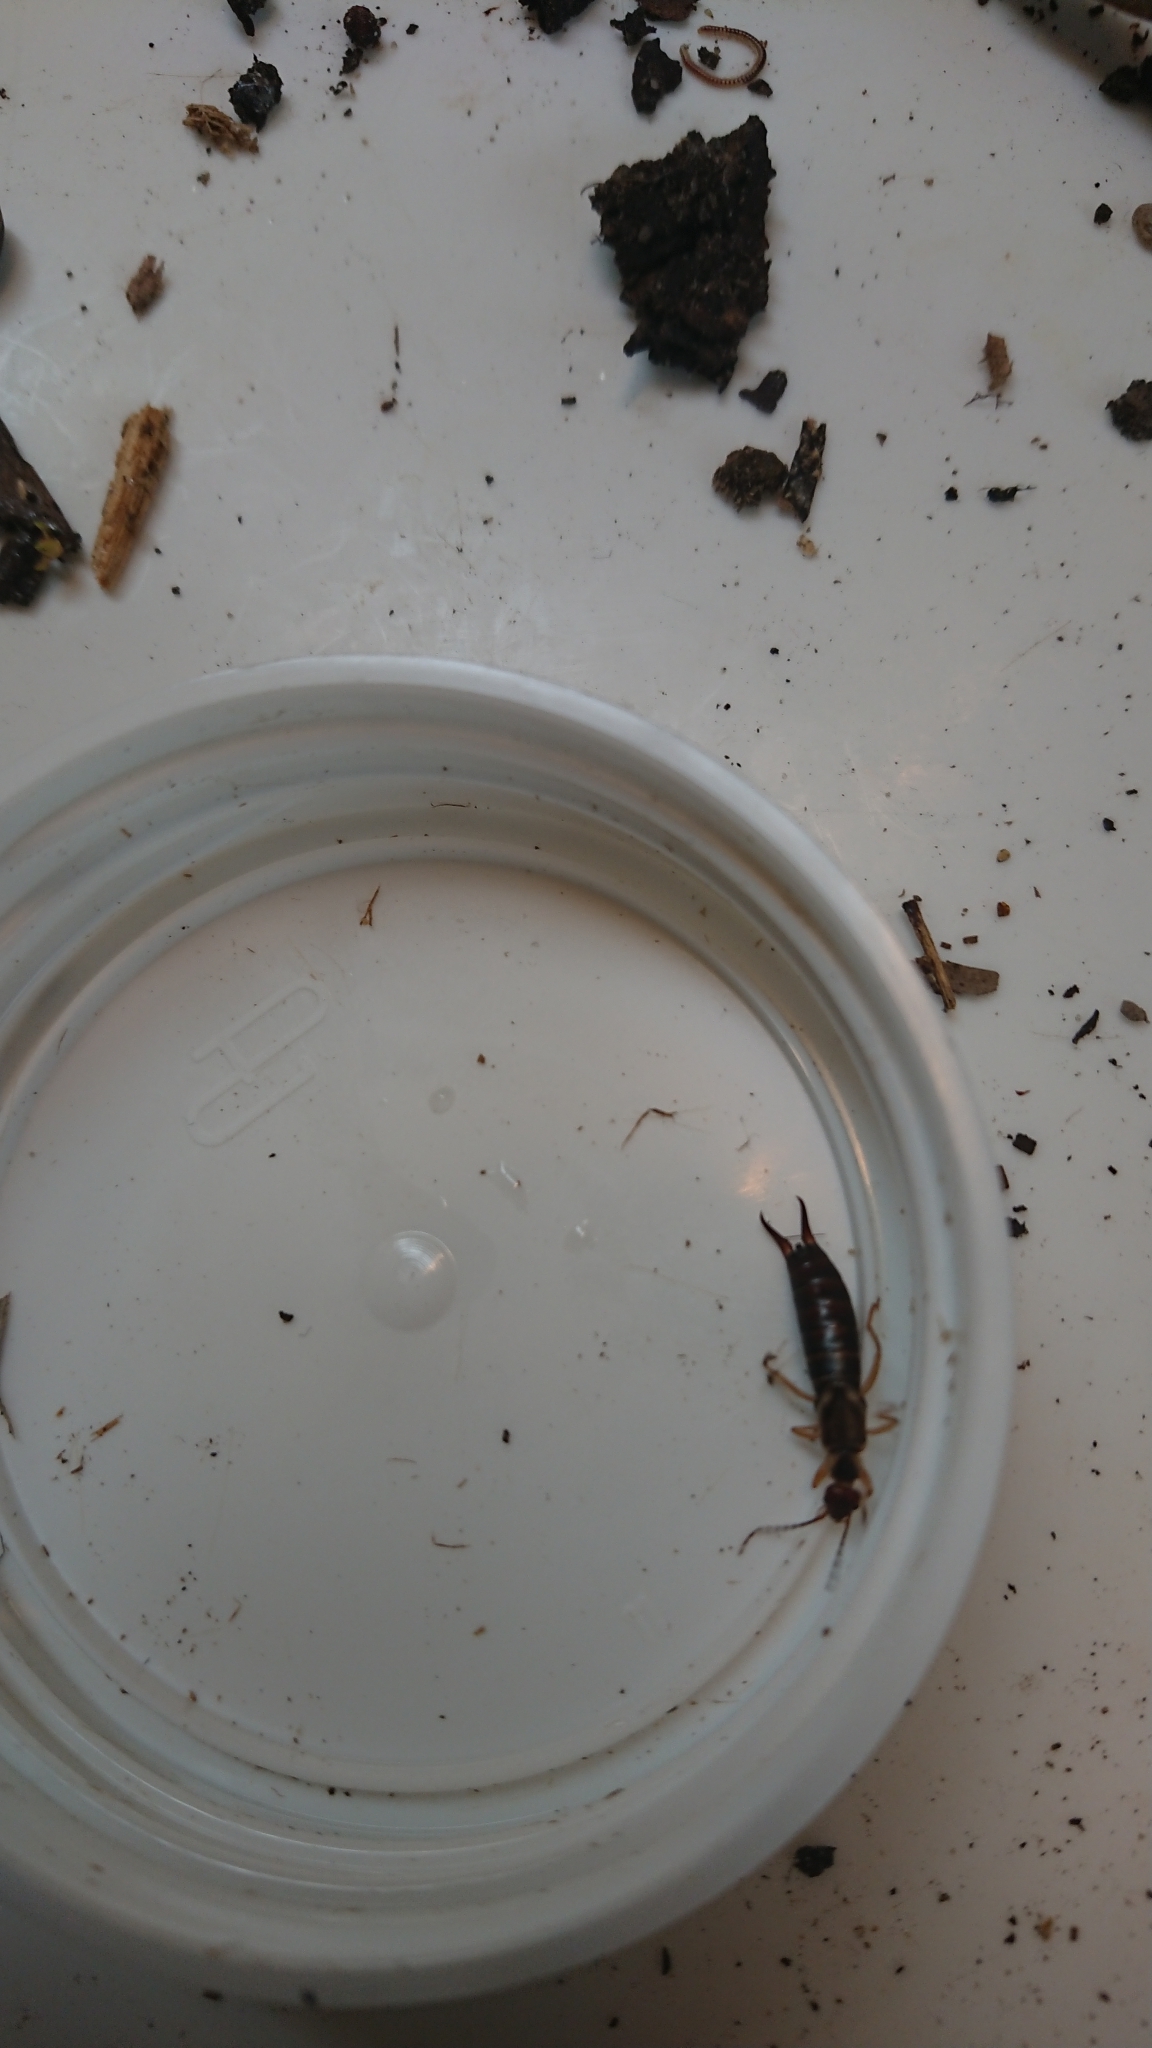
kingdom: Animalia
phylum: Arthropoda
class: Insecta
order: Dermaptera
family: Forficulidae
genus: Forficula
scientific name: Forficula
